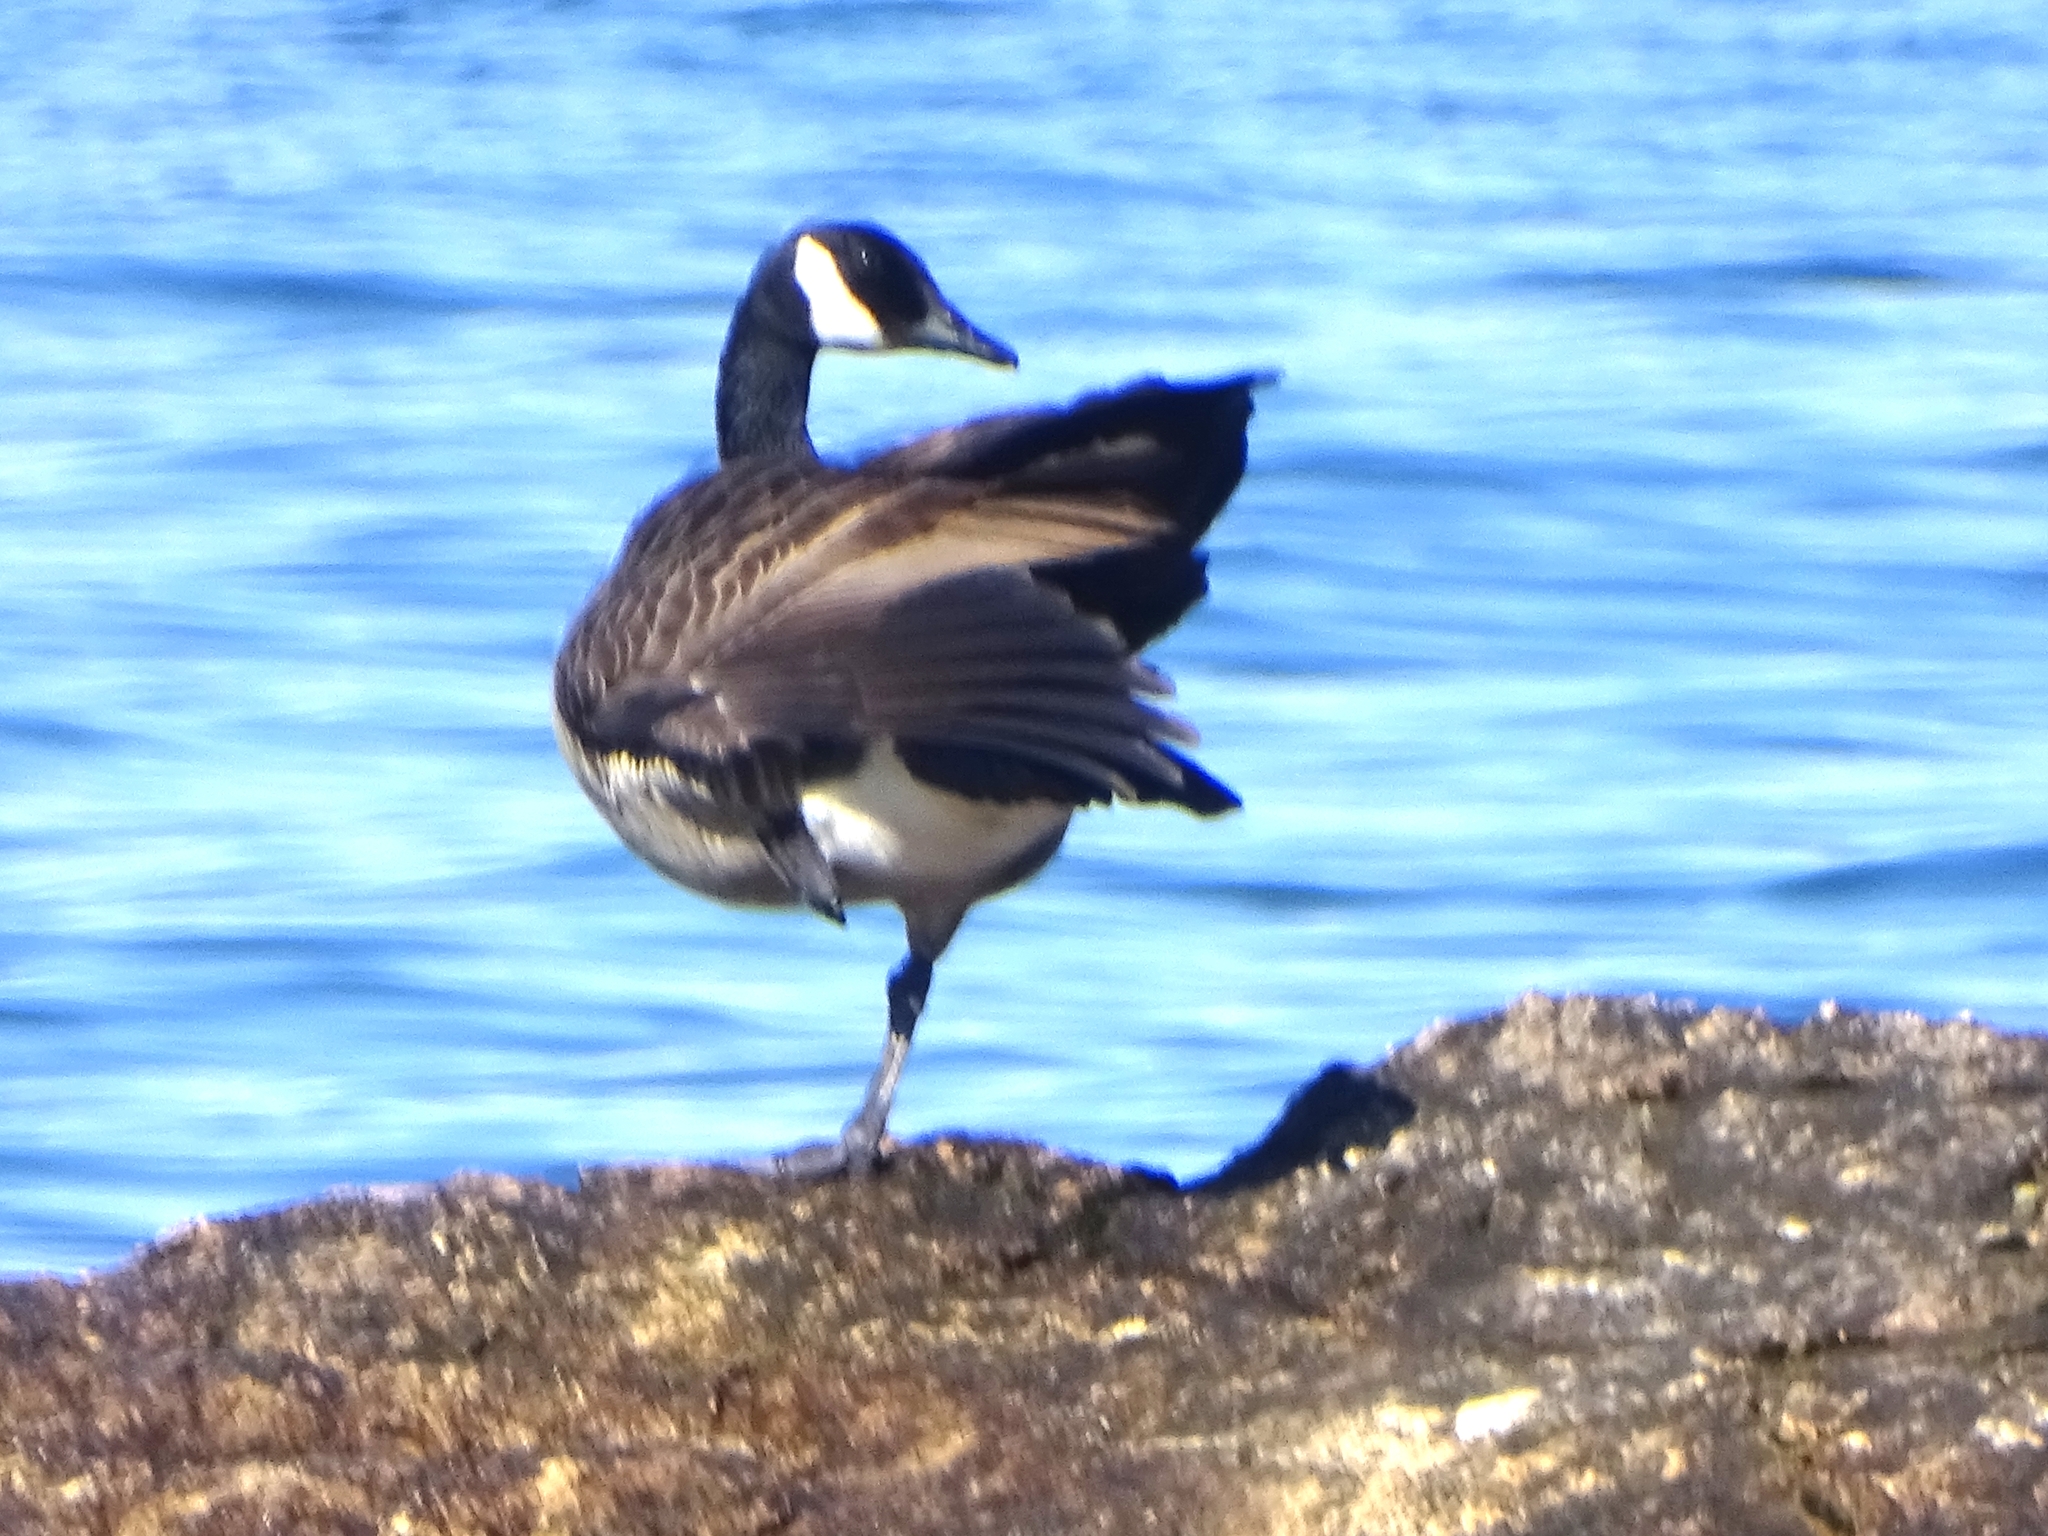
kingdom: Animalia
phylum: Chordata
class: Aves
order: Anseriformes
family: Anatidae
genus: Branta
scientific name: Branta canadensis
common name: Canada goose
